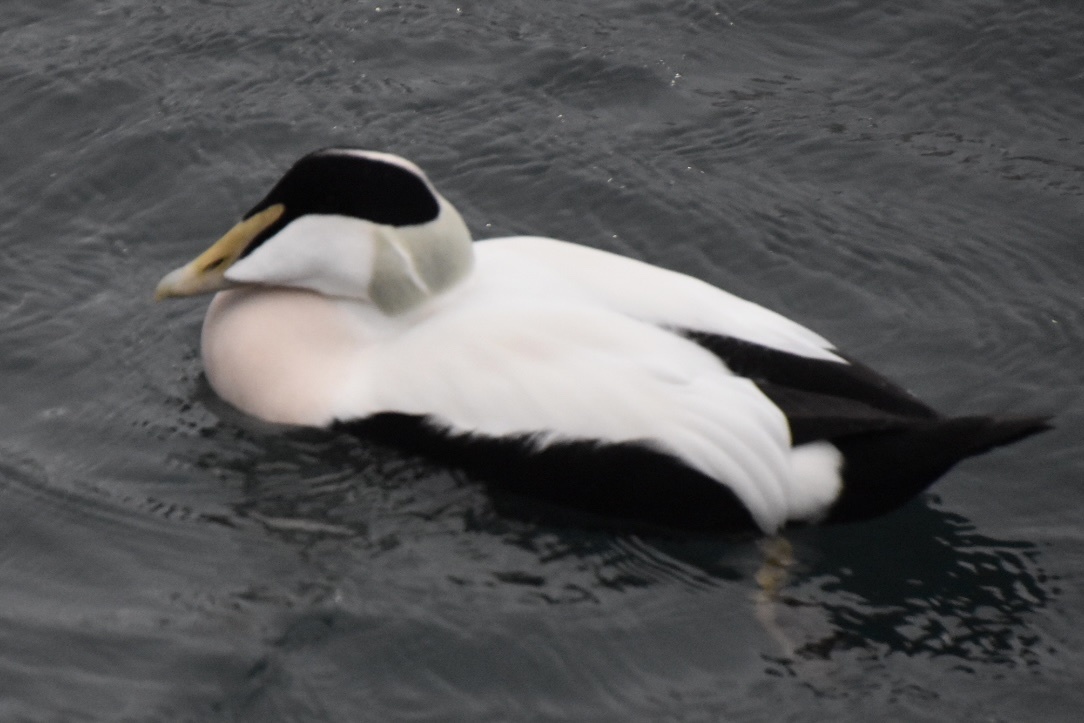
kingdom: Animalia
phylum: Chordata
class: Aves
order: Anseriformes
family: Anatidae
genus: Somateria
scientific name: Somateria mollissima
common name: Common eider
